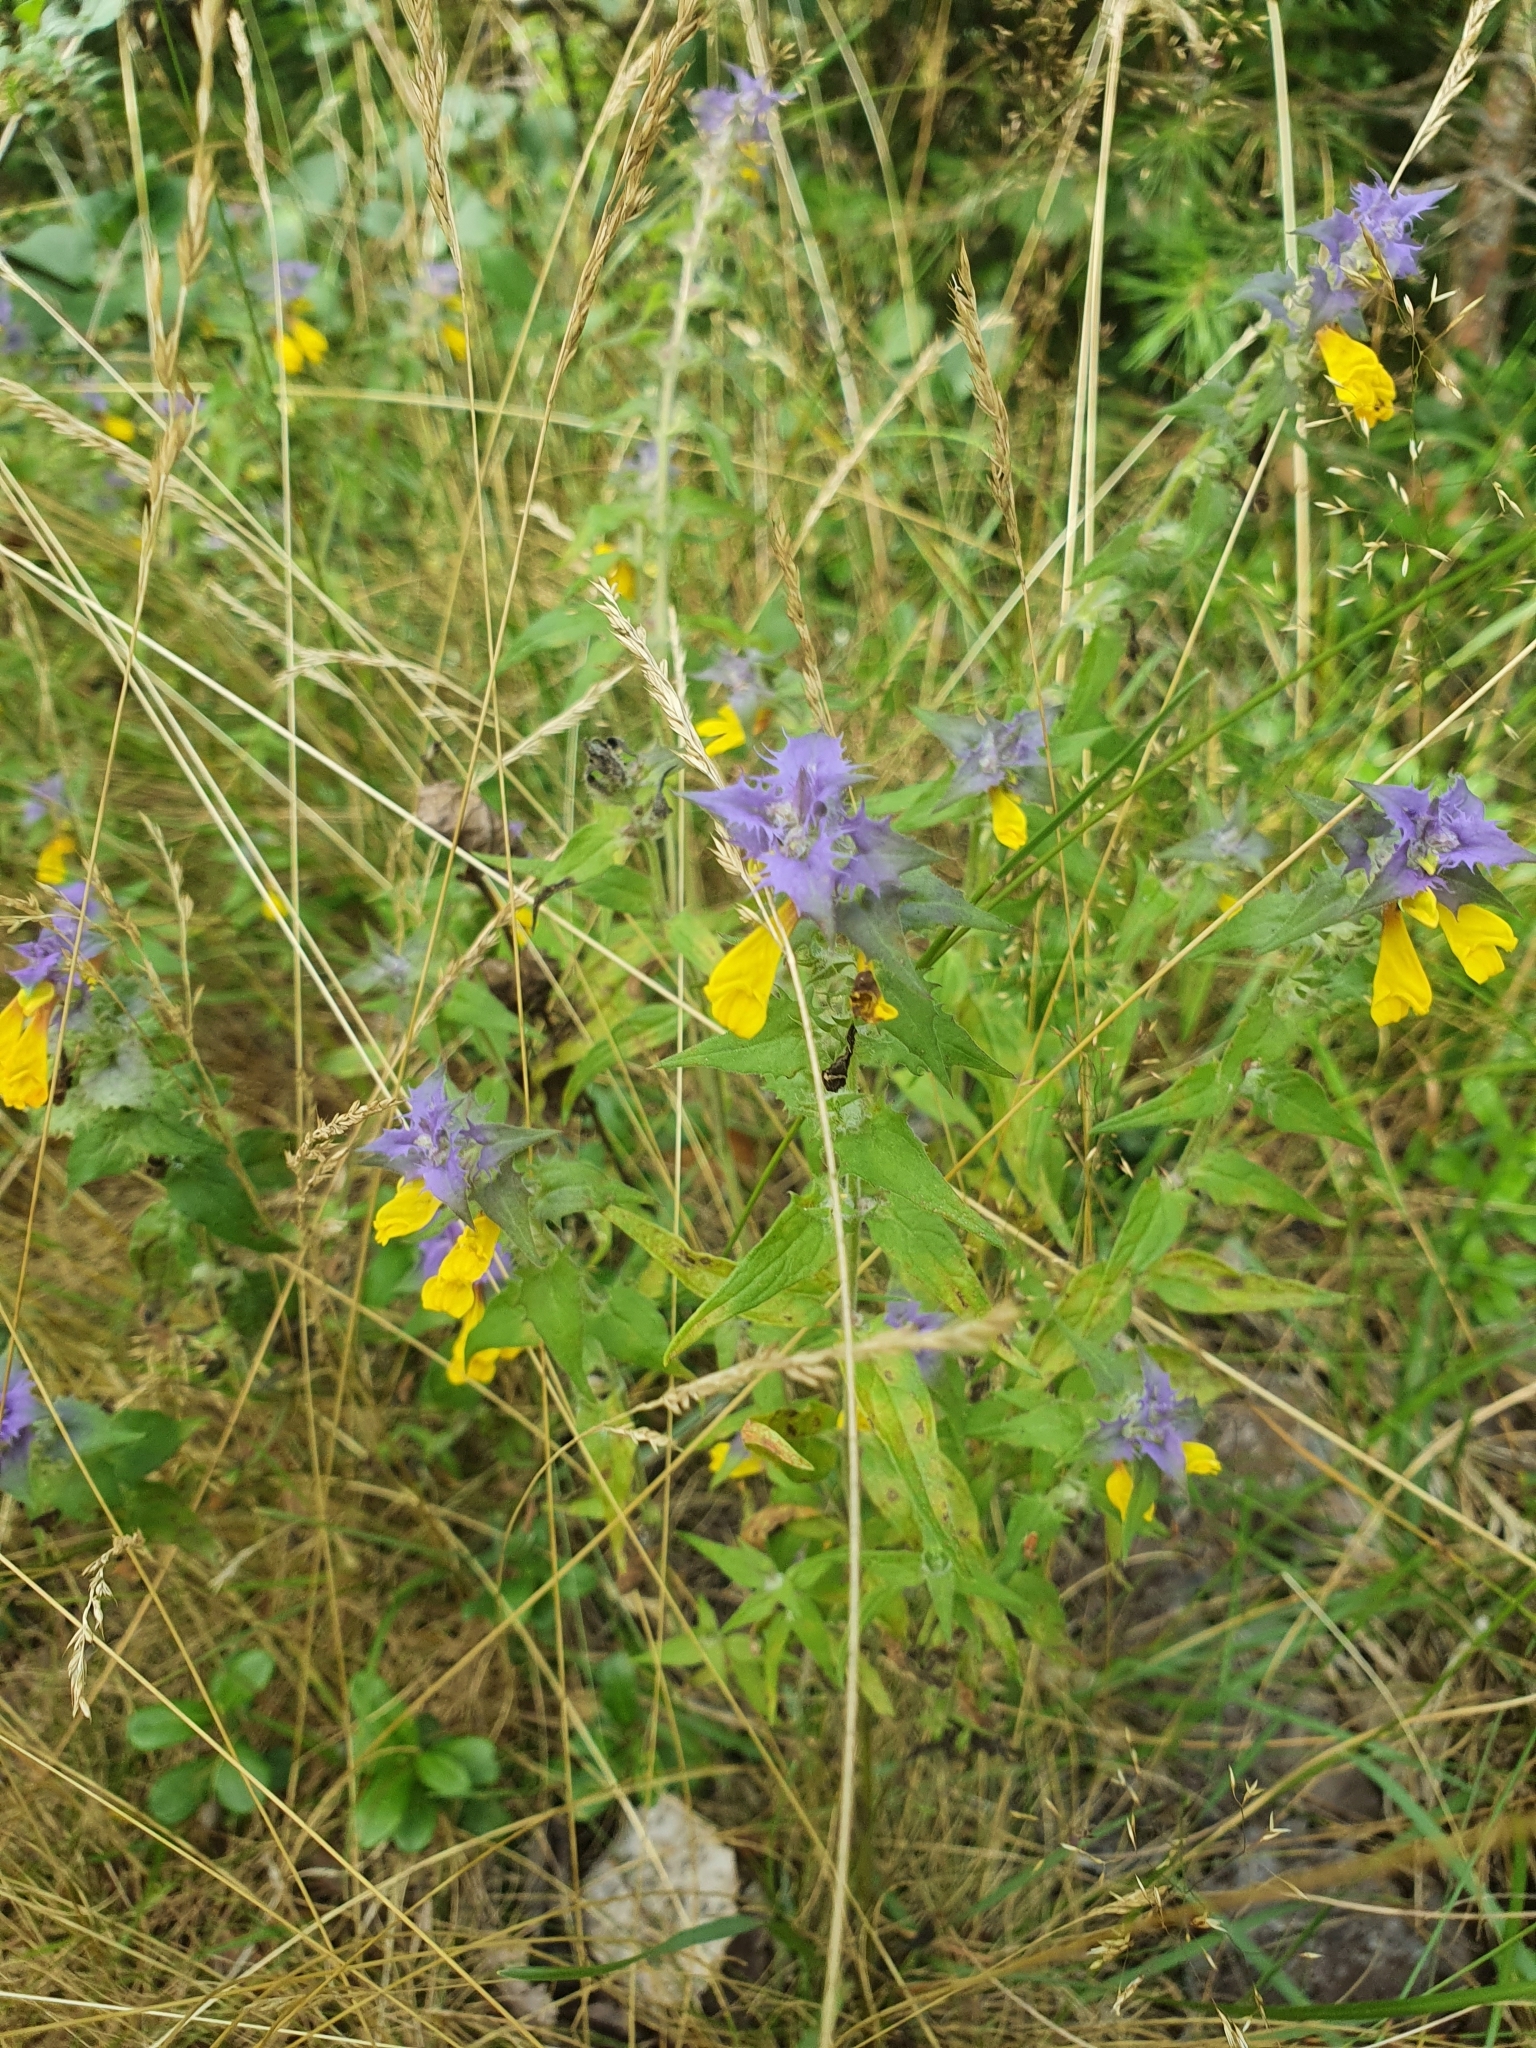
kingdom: Plantae
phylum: Tracheophyta
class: Magnoliopsida
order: Lamiales
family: Orobanchaceae
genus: Melampyrum
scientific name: Melampyrum nemorosum
